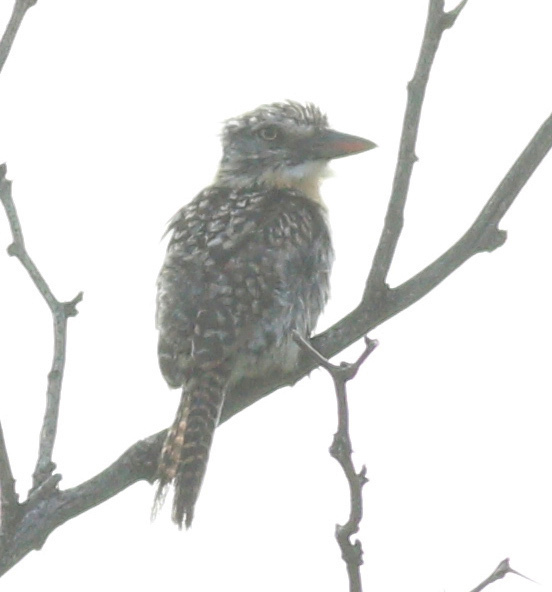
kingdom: Animalia
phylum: Chordata
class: Aves
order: Piciformes
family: Bucconidae
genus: Nystalus
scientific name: Nystalus striatipectus
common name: Chaco puffbird
